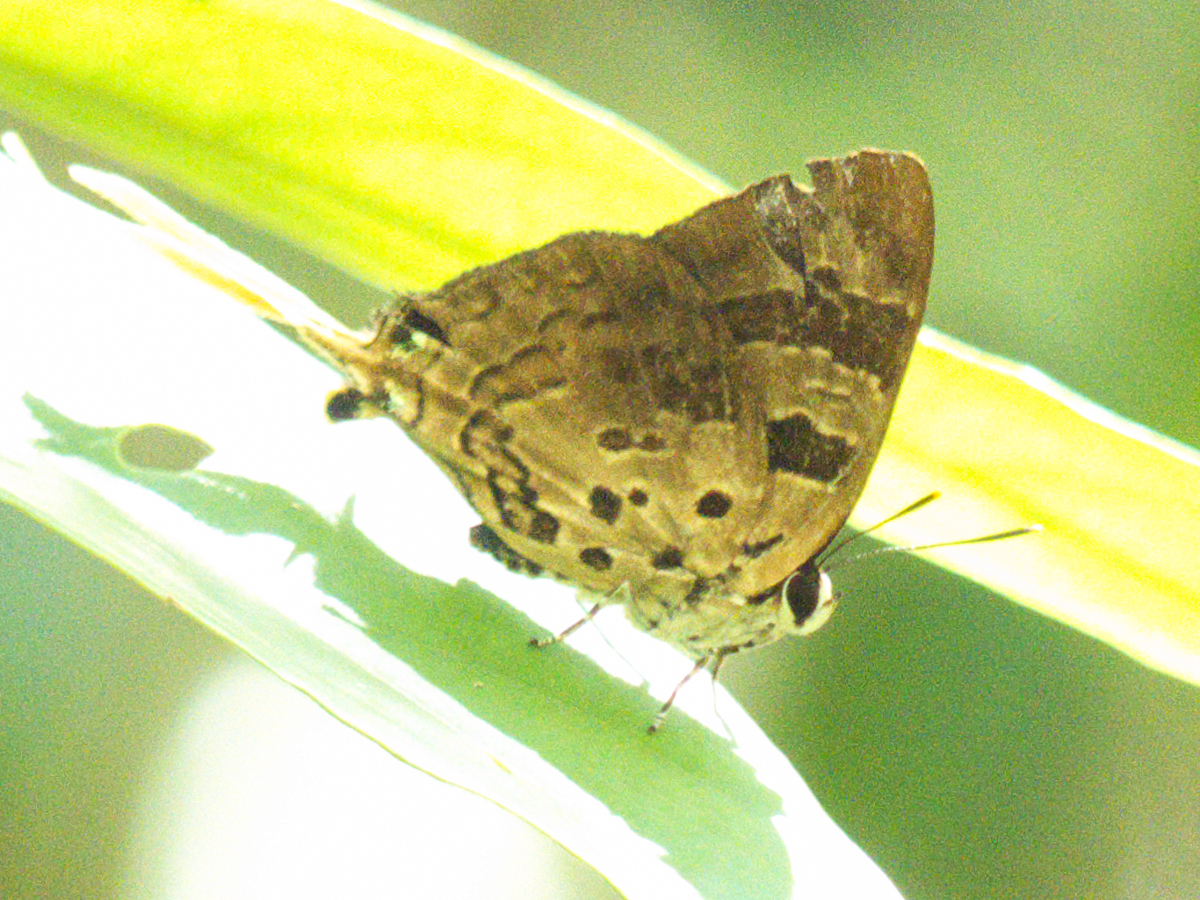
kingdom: Animalia
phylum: Arthropoda
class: Insecta
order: Lepidoptera
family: Lycaenidae
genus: Bindahara
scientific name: Bindahara phocides
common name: Sword-tailed flash
